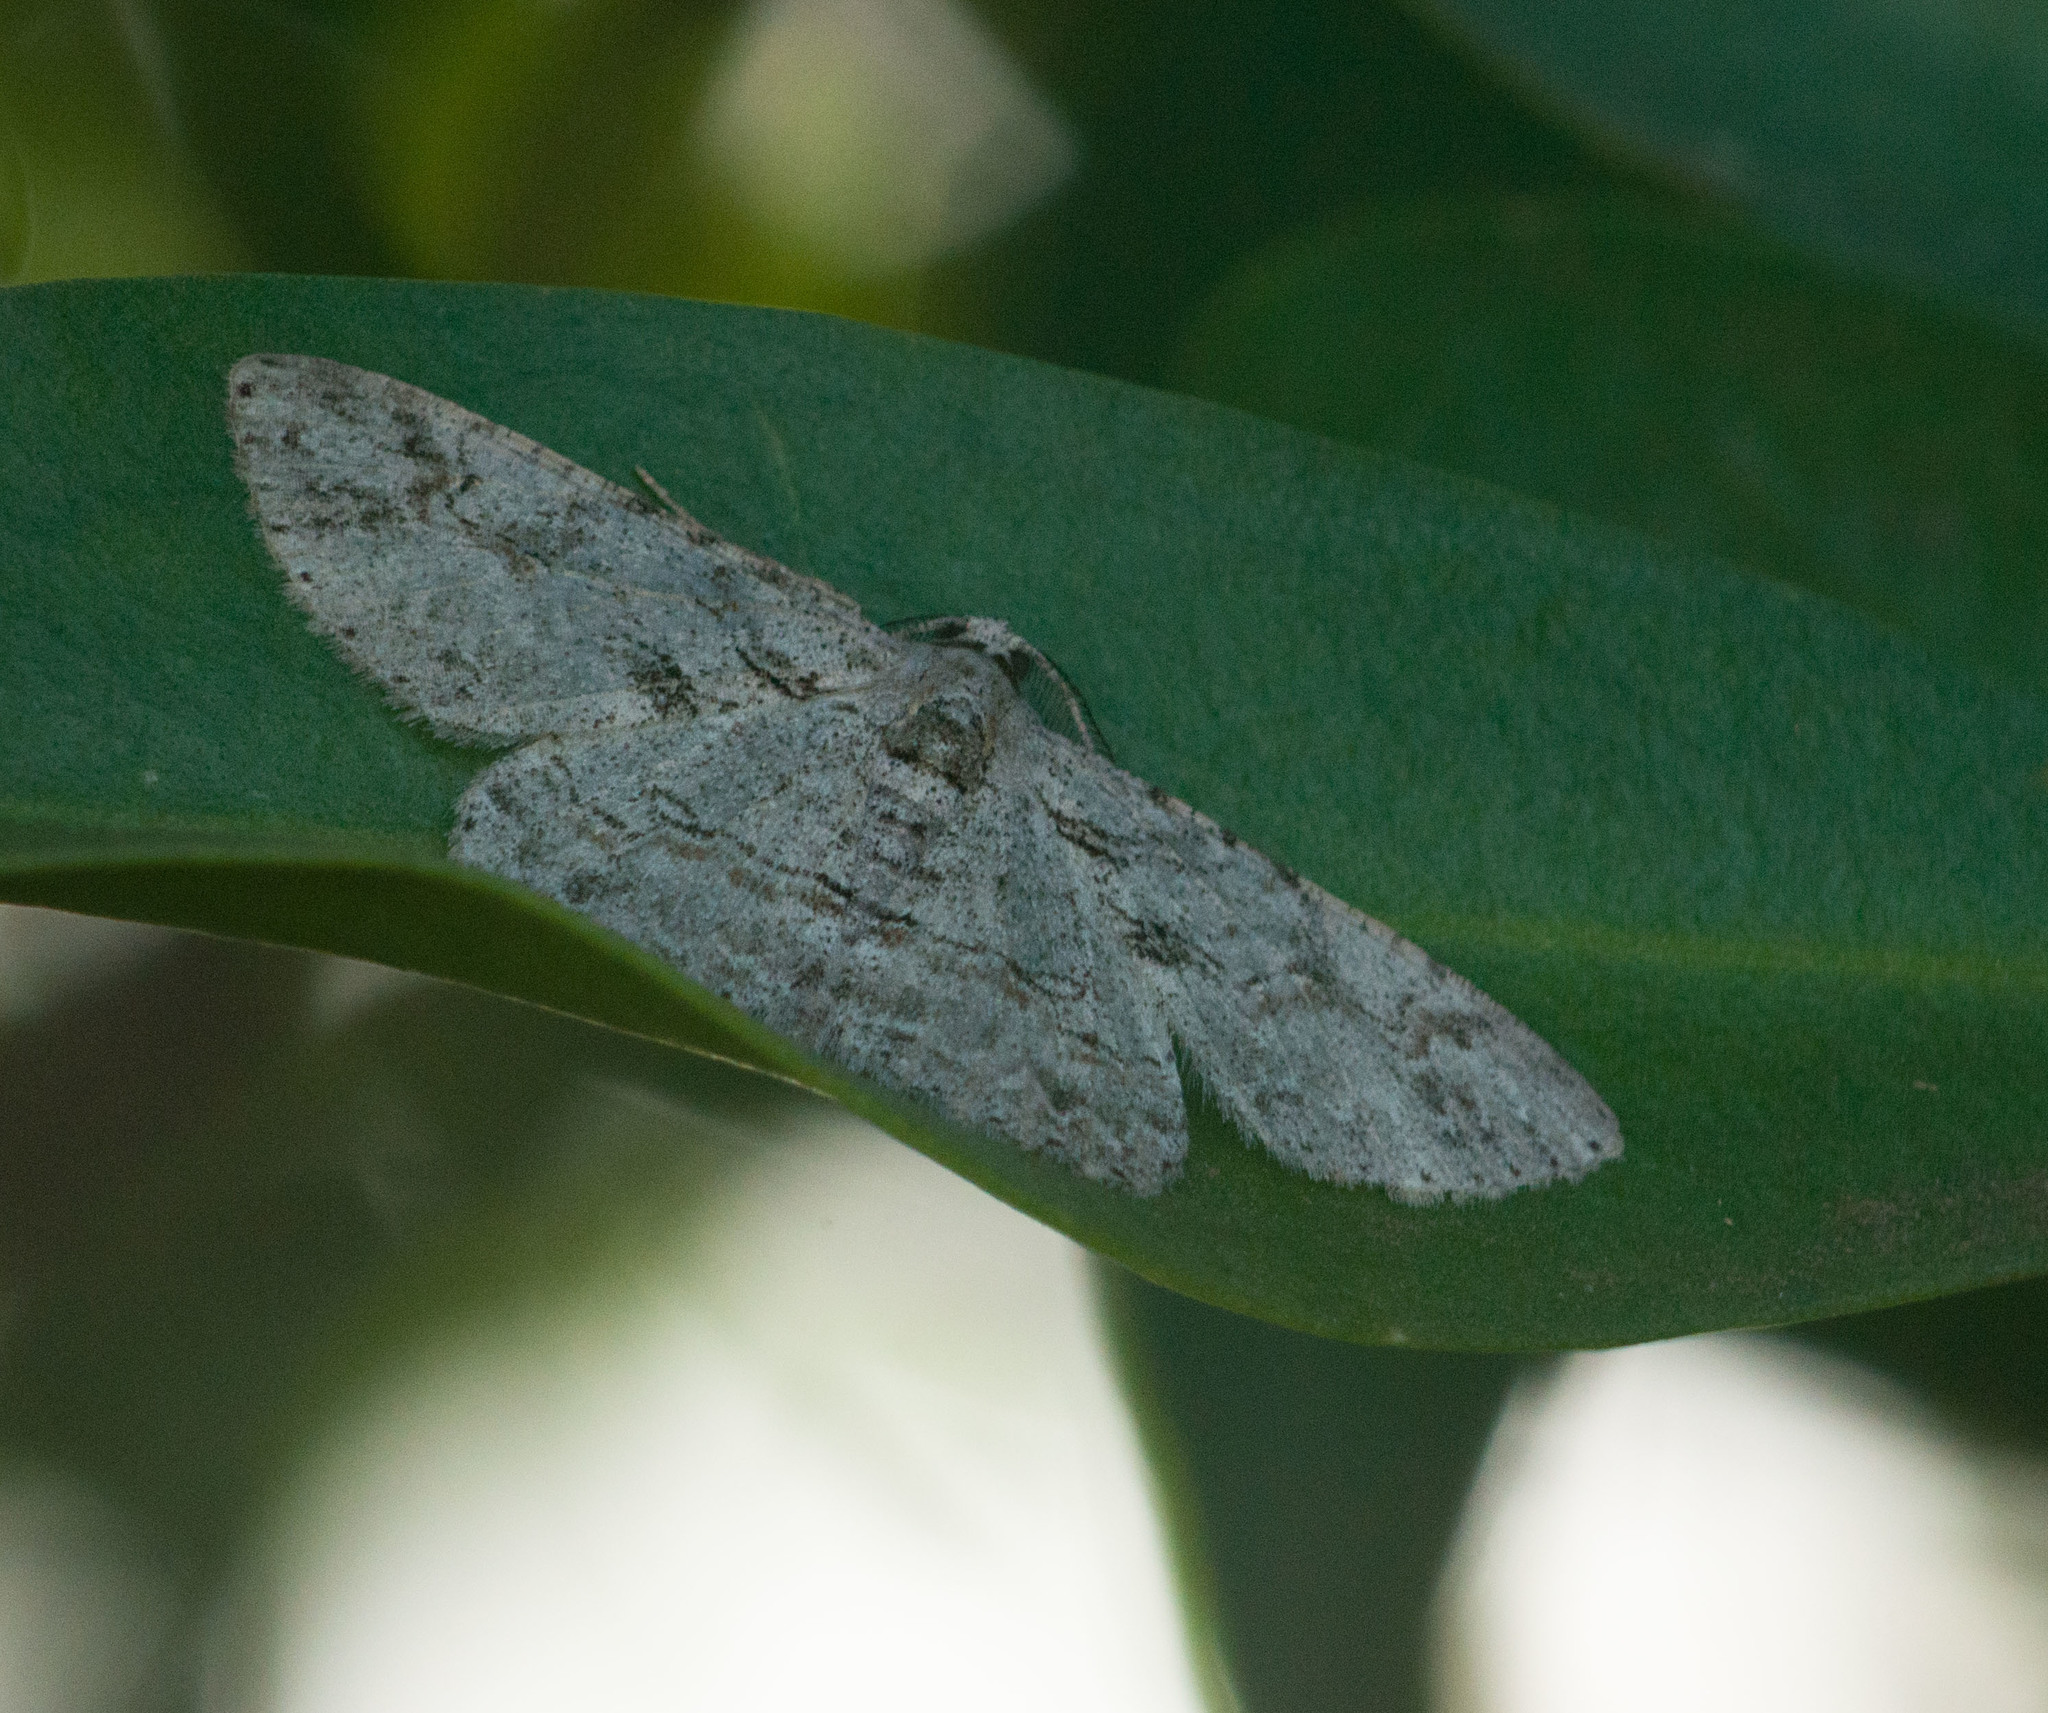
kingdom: Animalia
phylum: Arthropoda
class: Insecta
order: Lepidoptera
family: Geometridae
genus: Iridopsis
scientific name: Iridopsis fragilaria
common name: Moth
